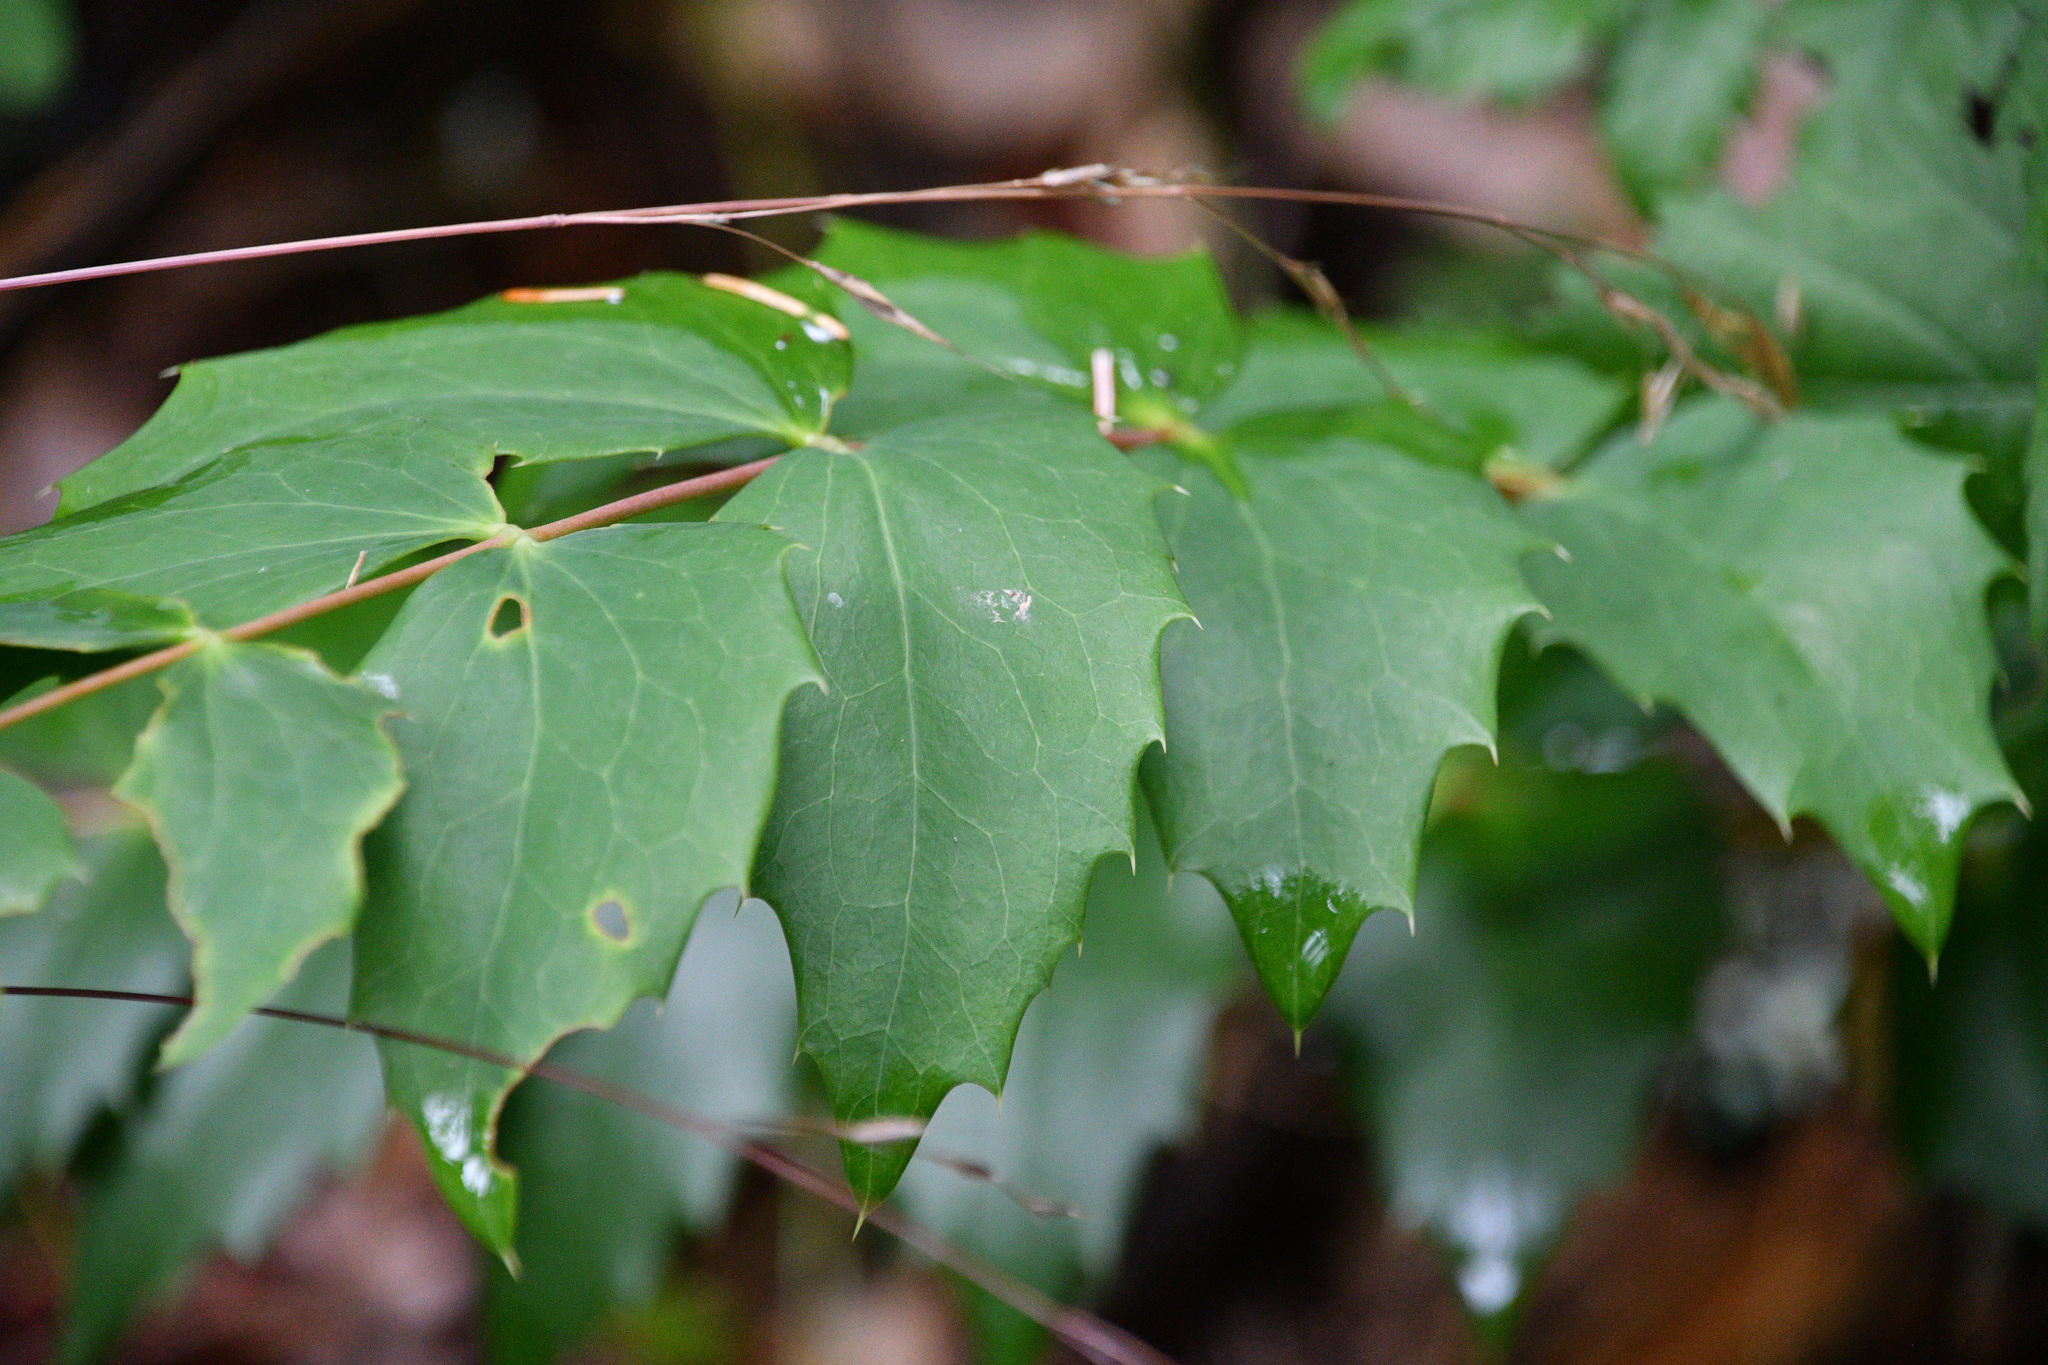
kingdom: Plantae
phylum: Tracheophyta
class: Magnoliopsida
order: Ranunculales
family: Berberidaceae
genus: Mahonia
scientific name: Mahonia nervosa
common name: Cascade oregon-grape
